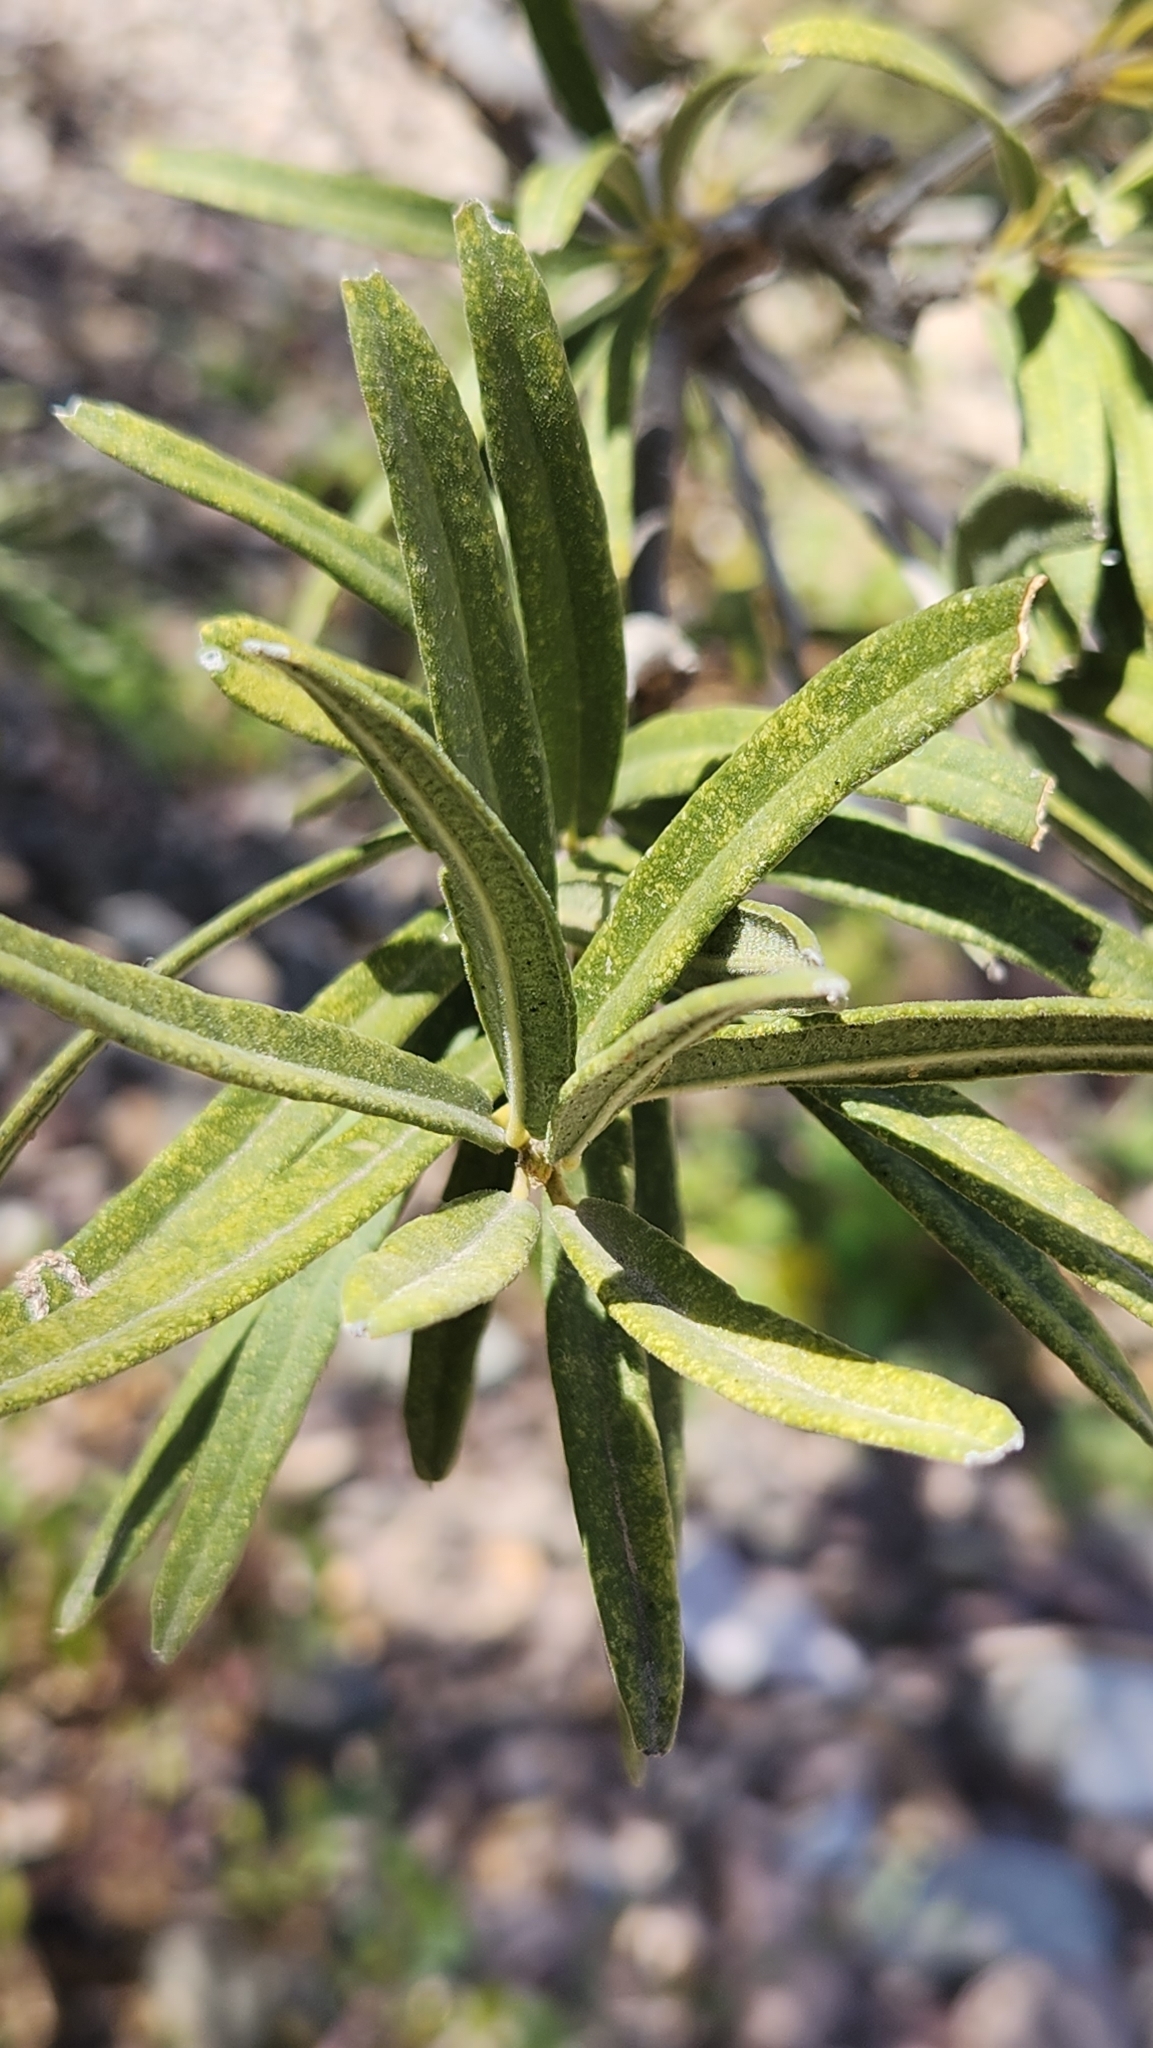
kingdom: Plantae
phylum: Tracheophyta
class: Magnoliopsida
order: Brassicales
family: Stixaceae
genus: Forchhammeria
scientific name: Forchhammeria watsonii
